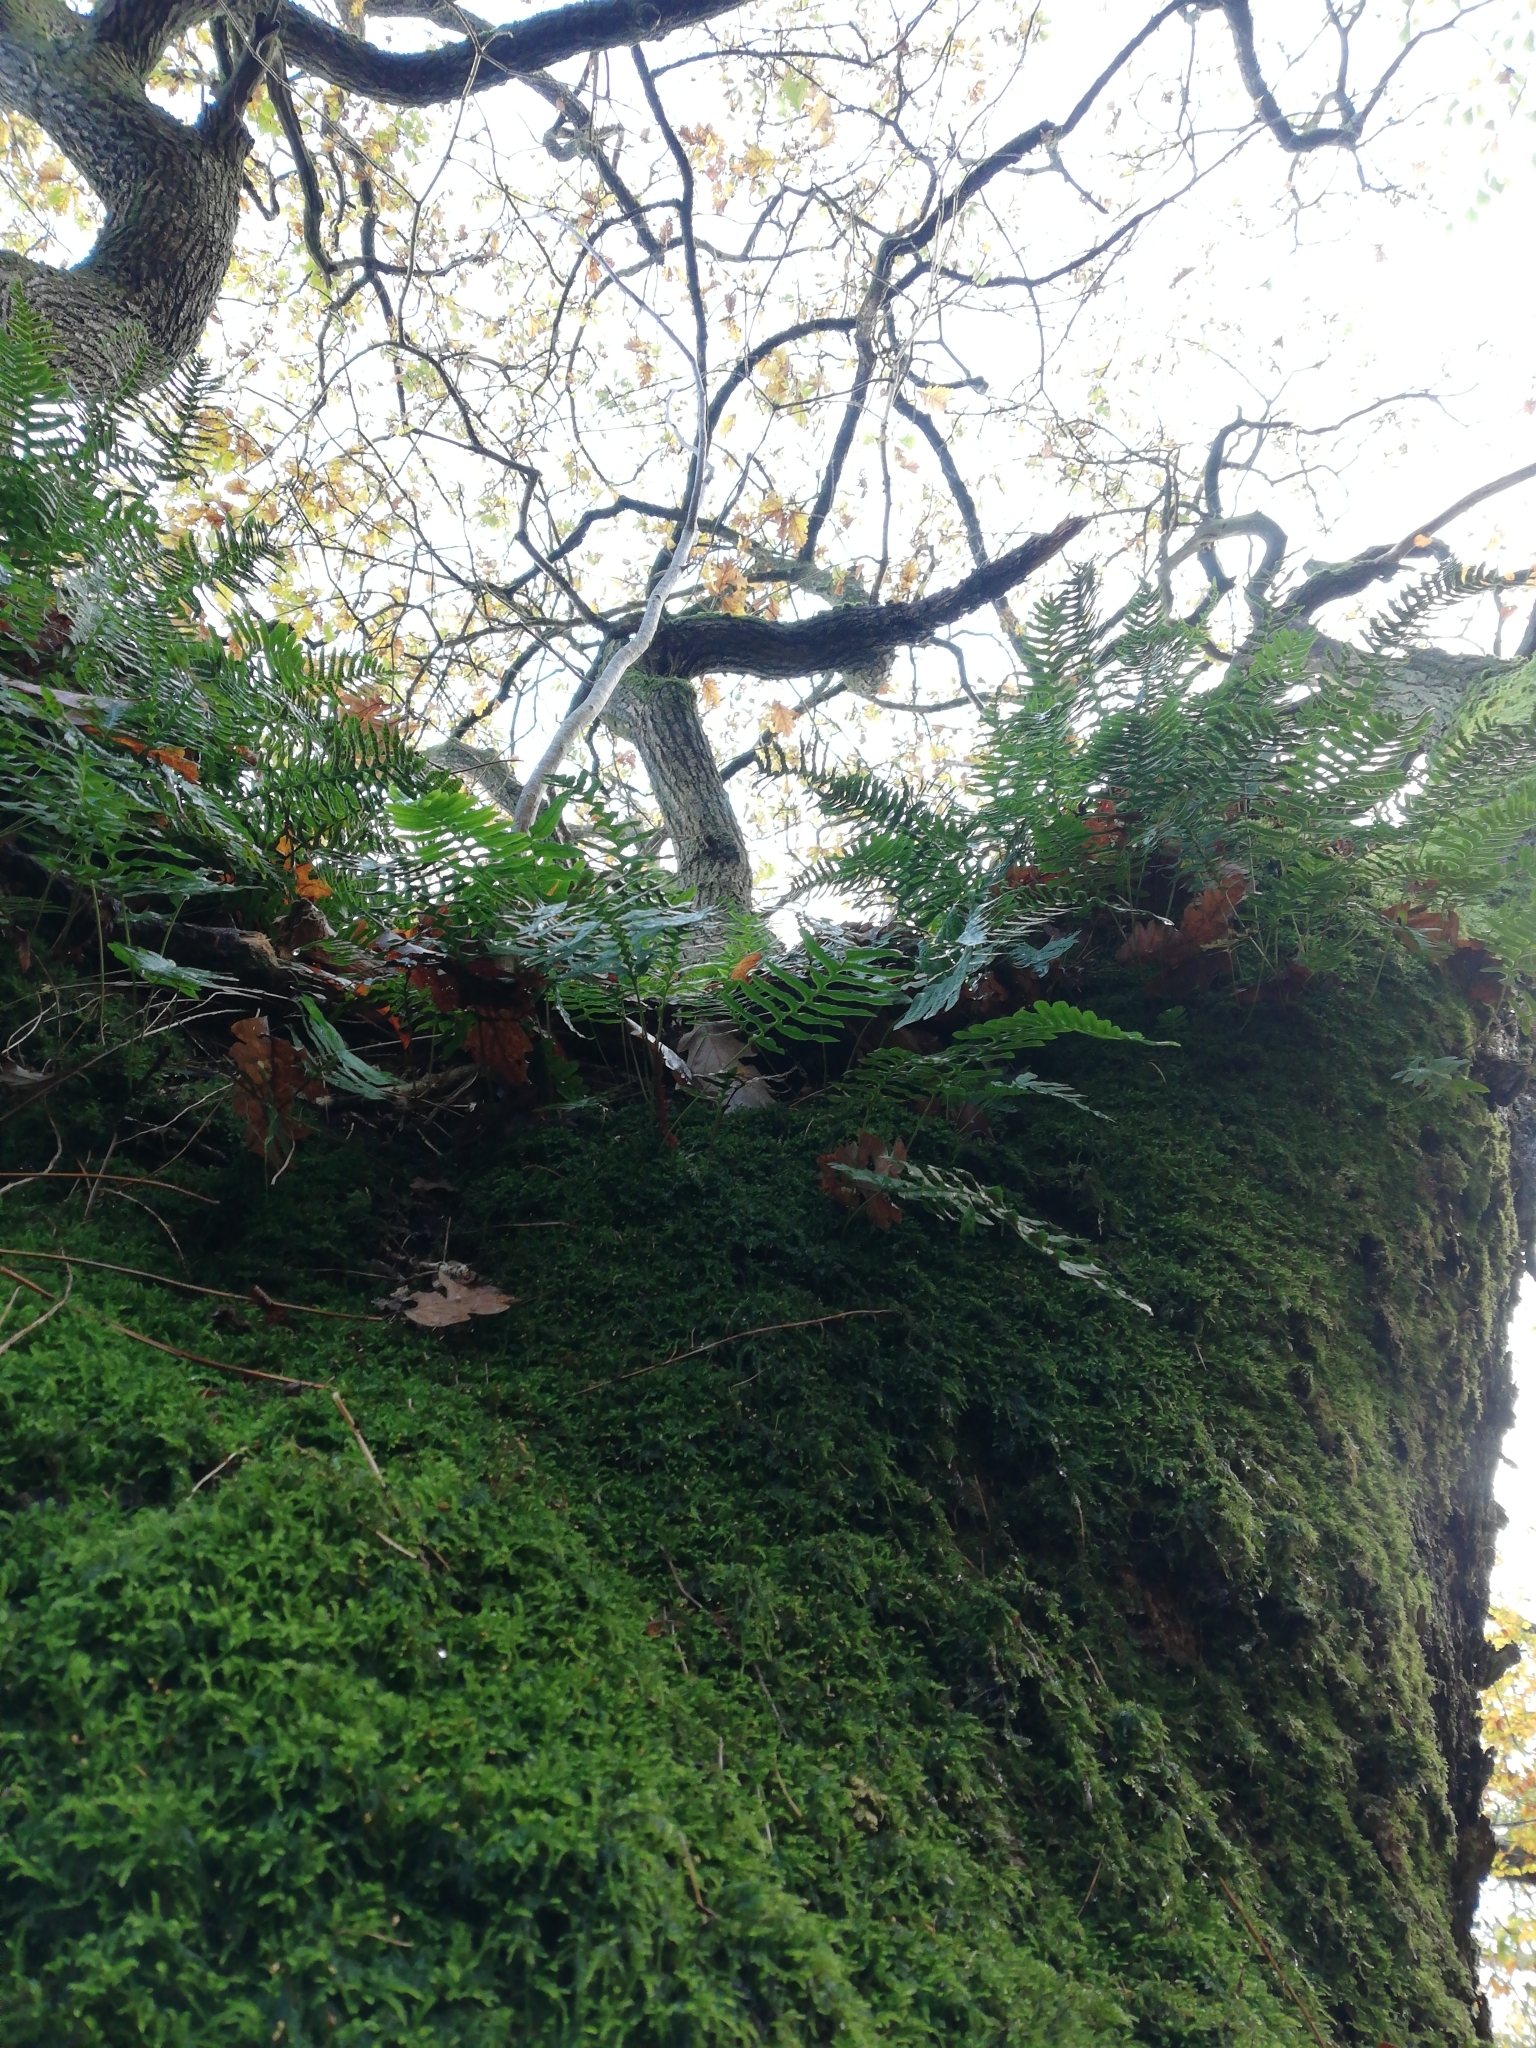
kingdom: Plantae
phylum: Tracheophyta
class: Polypodiopsida
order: Polypodiales
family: Polypodiaceae
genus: Polypodium
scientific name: Polypodium vulgare
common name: Common polypody
